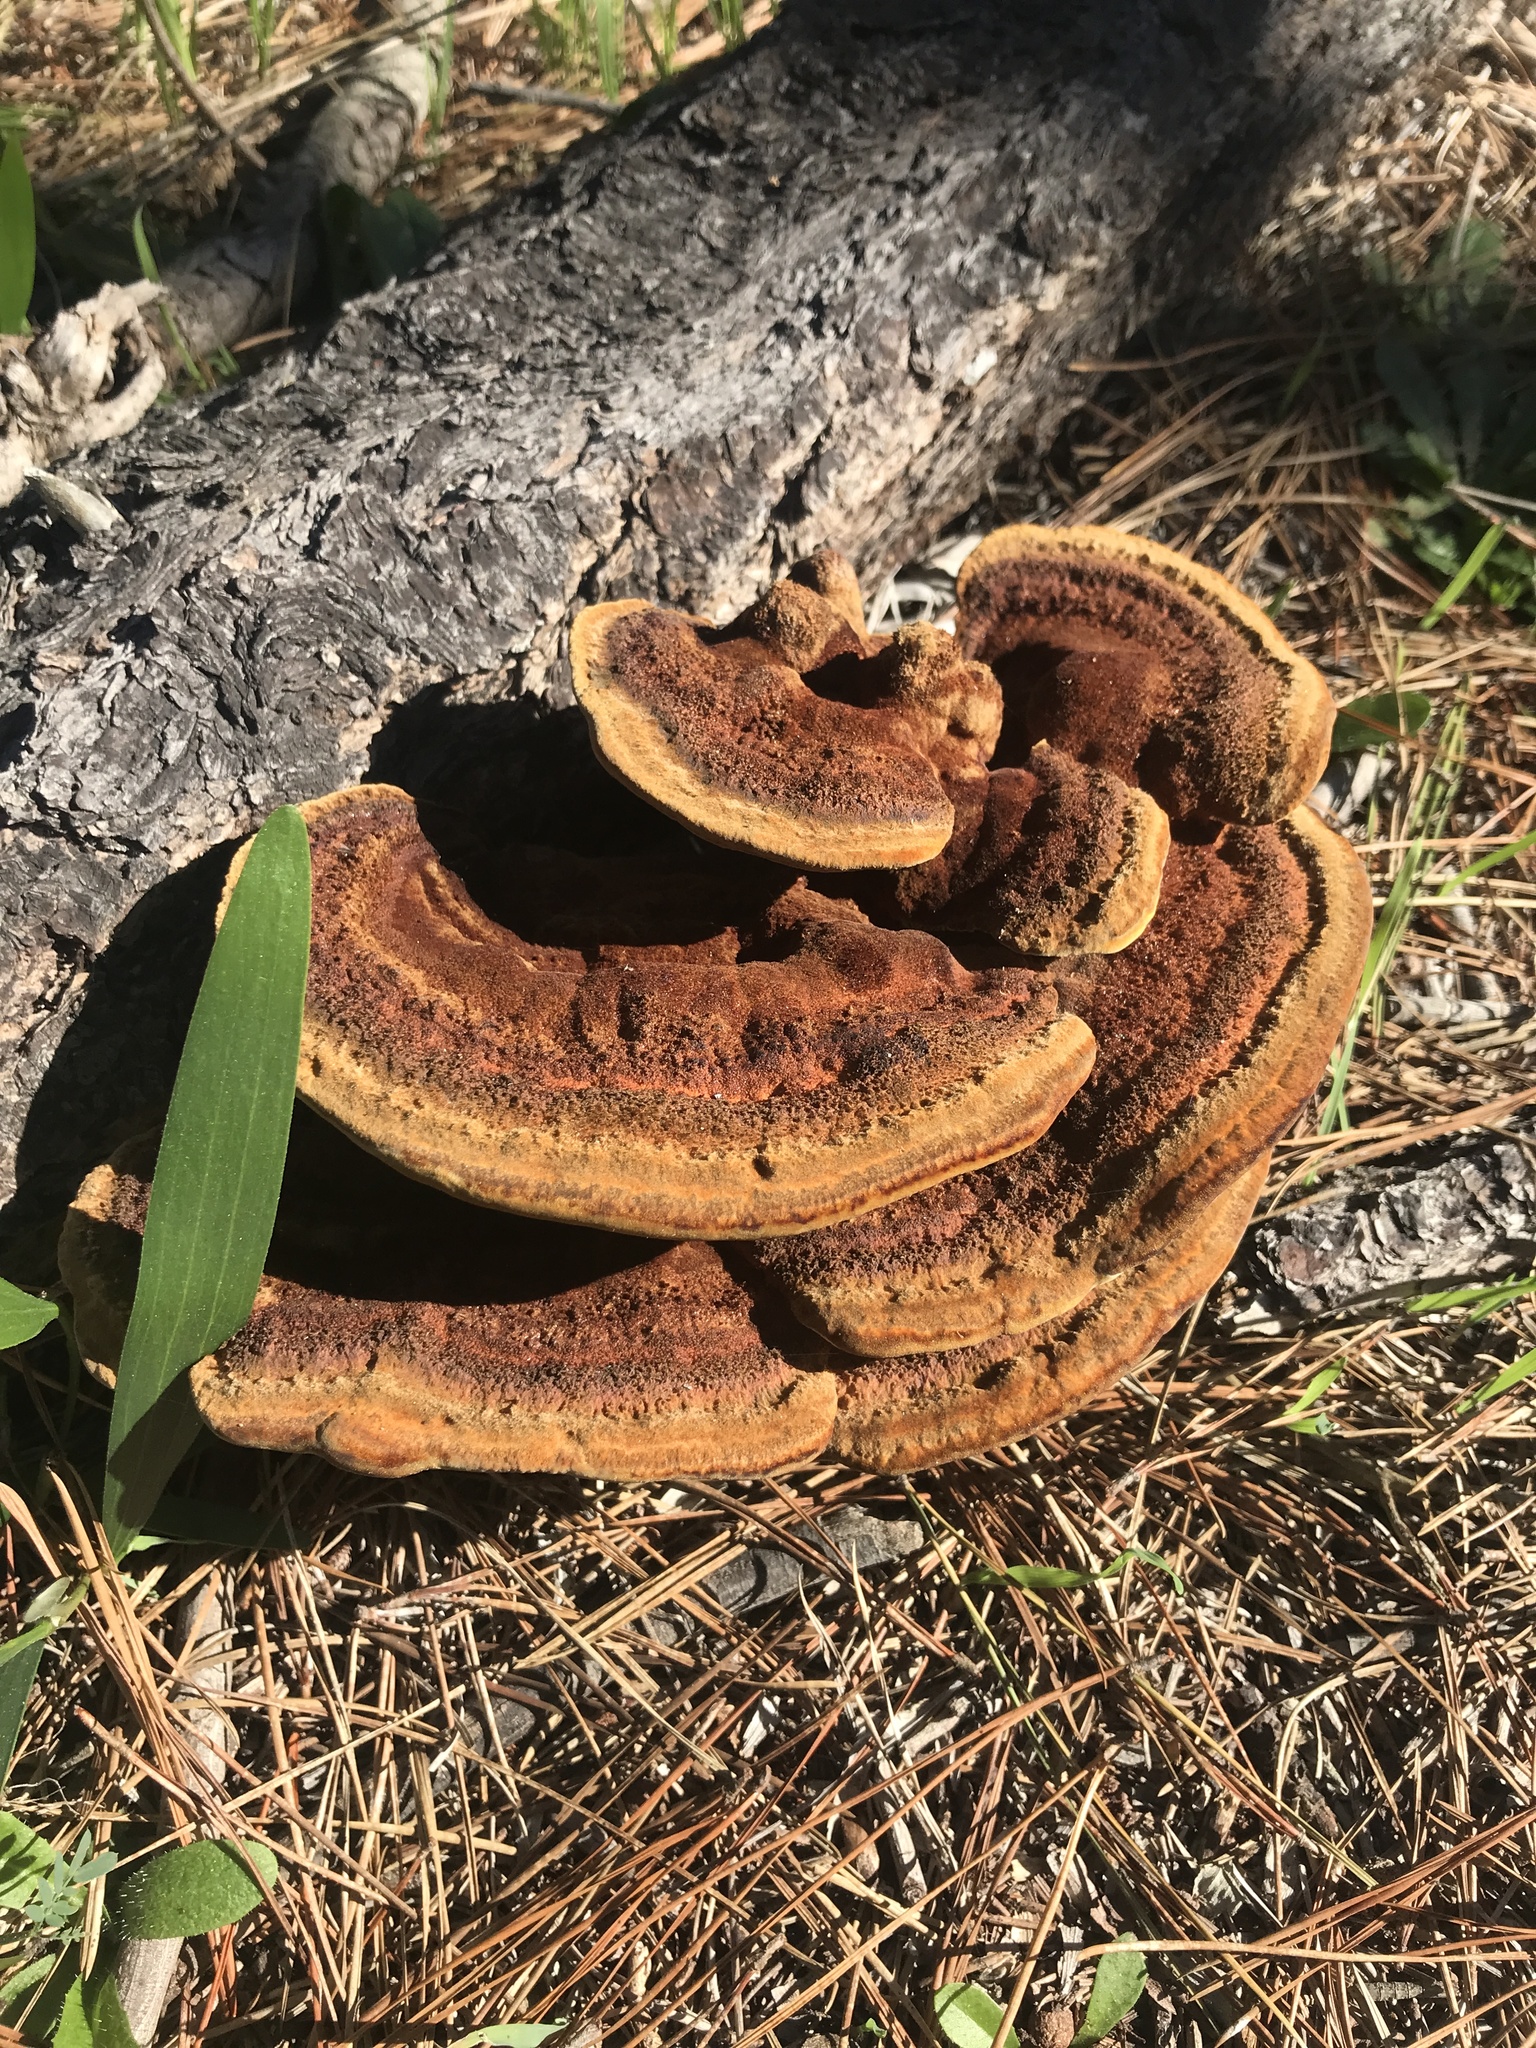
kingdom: Fungi
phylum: Basidiomycota
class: Agaricomycetes
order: Polyporales
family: Laetiporaceae
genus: Phaeolus
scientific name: Phaeolus schweinitzii
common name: Dyer's mazegill
